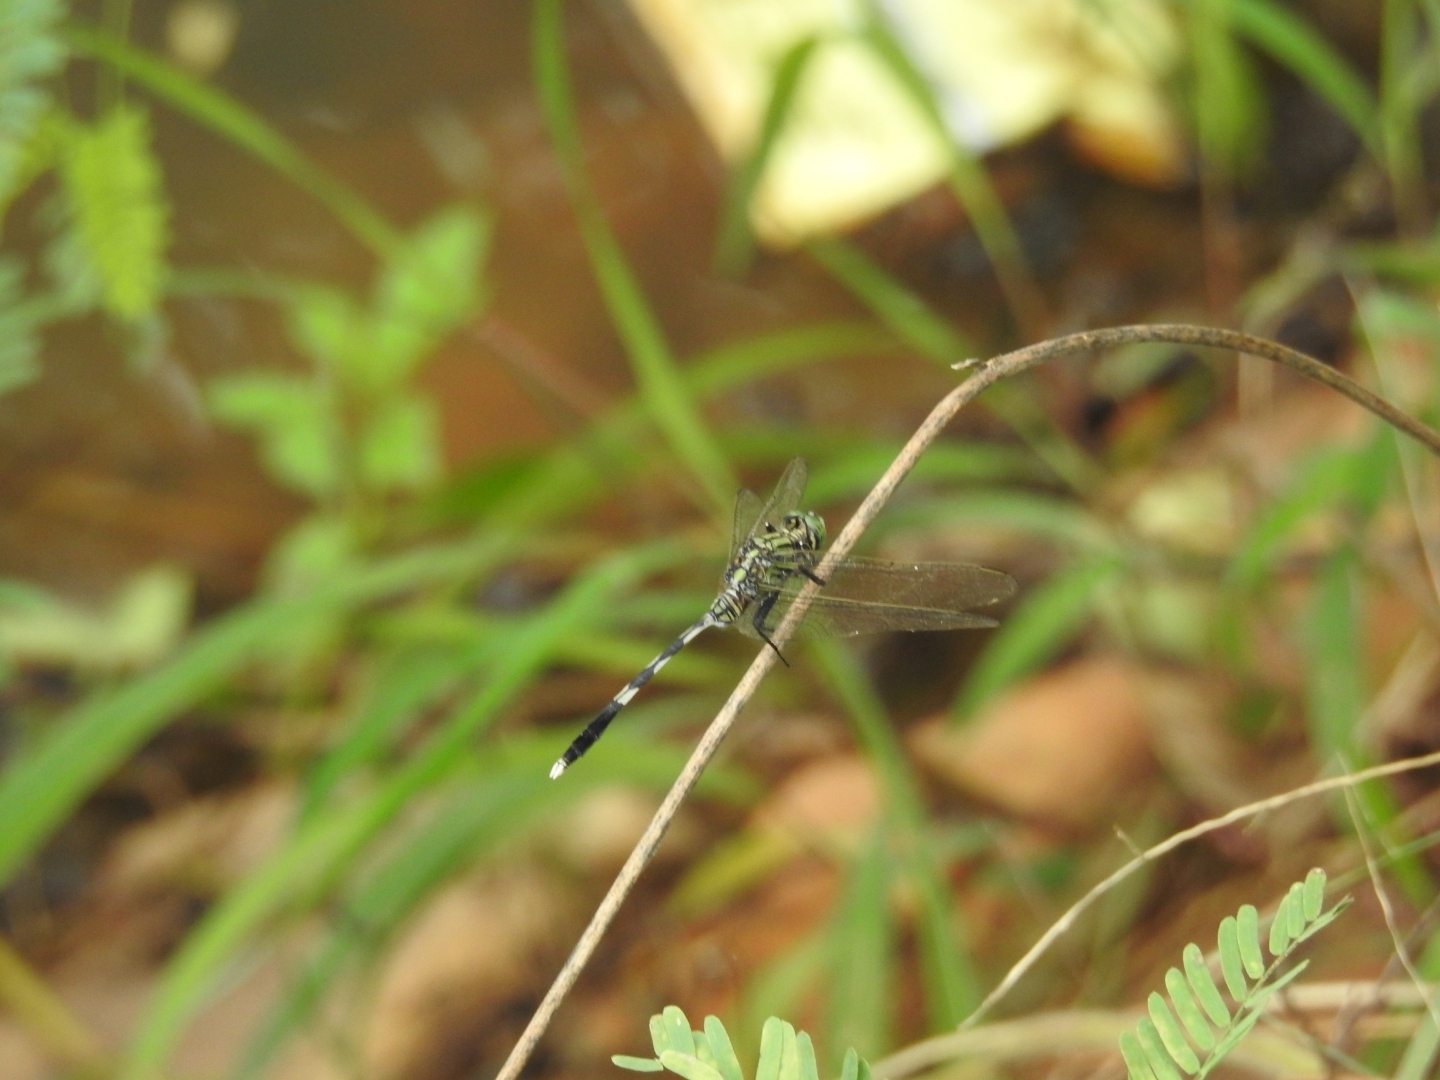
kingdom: Animalia
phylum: Arthropoda
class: Insecta
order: Odonata
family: Libellulidae
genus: Orthetrum
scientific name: Orthetrum sabina
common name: Slender skimmer
